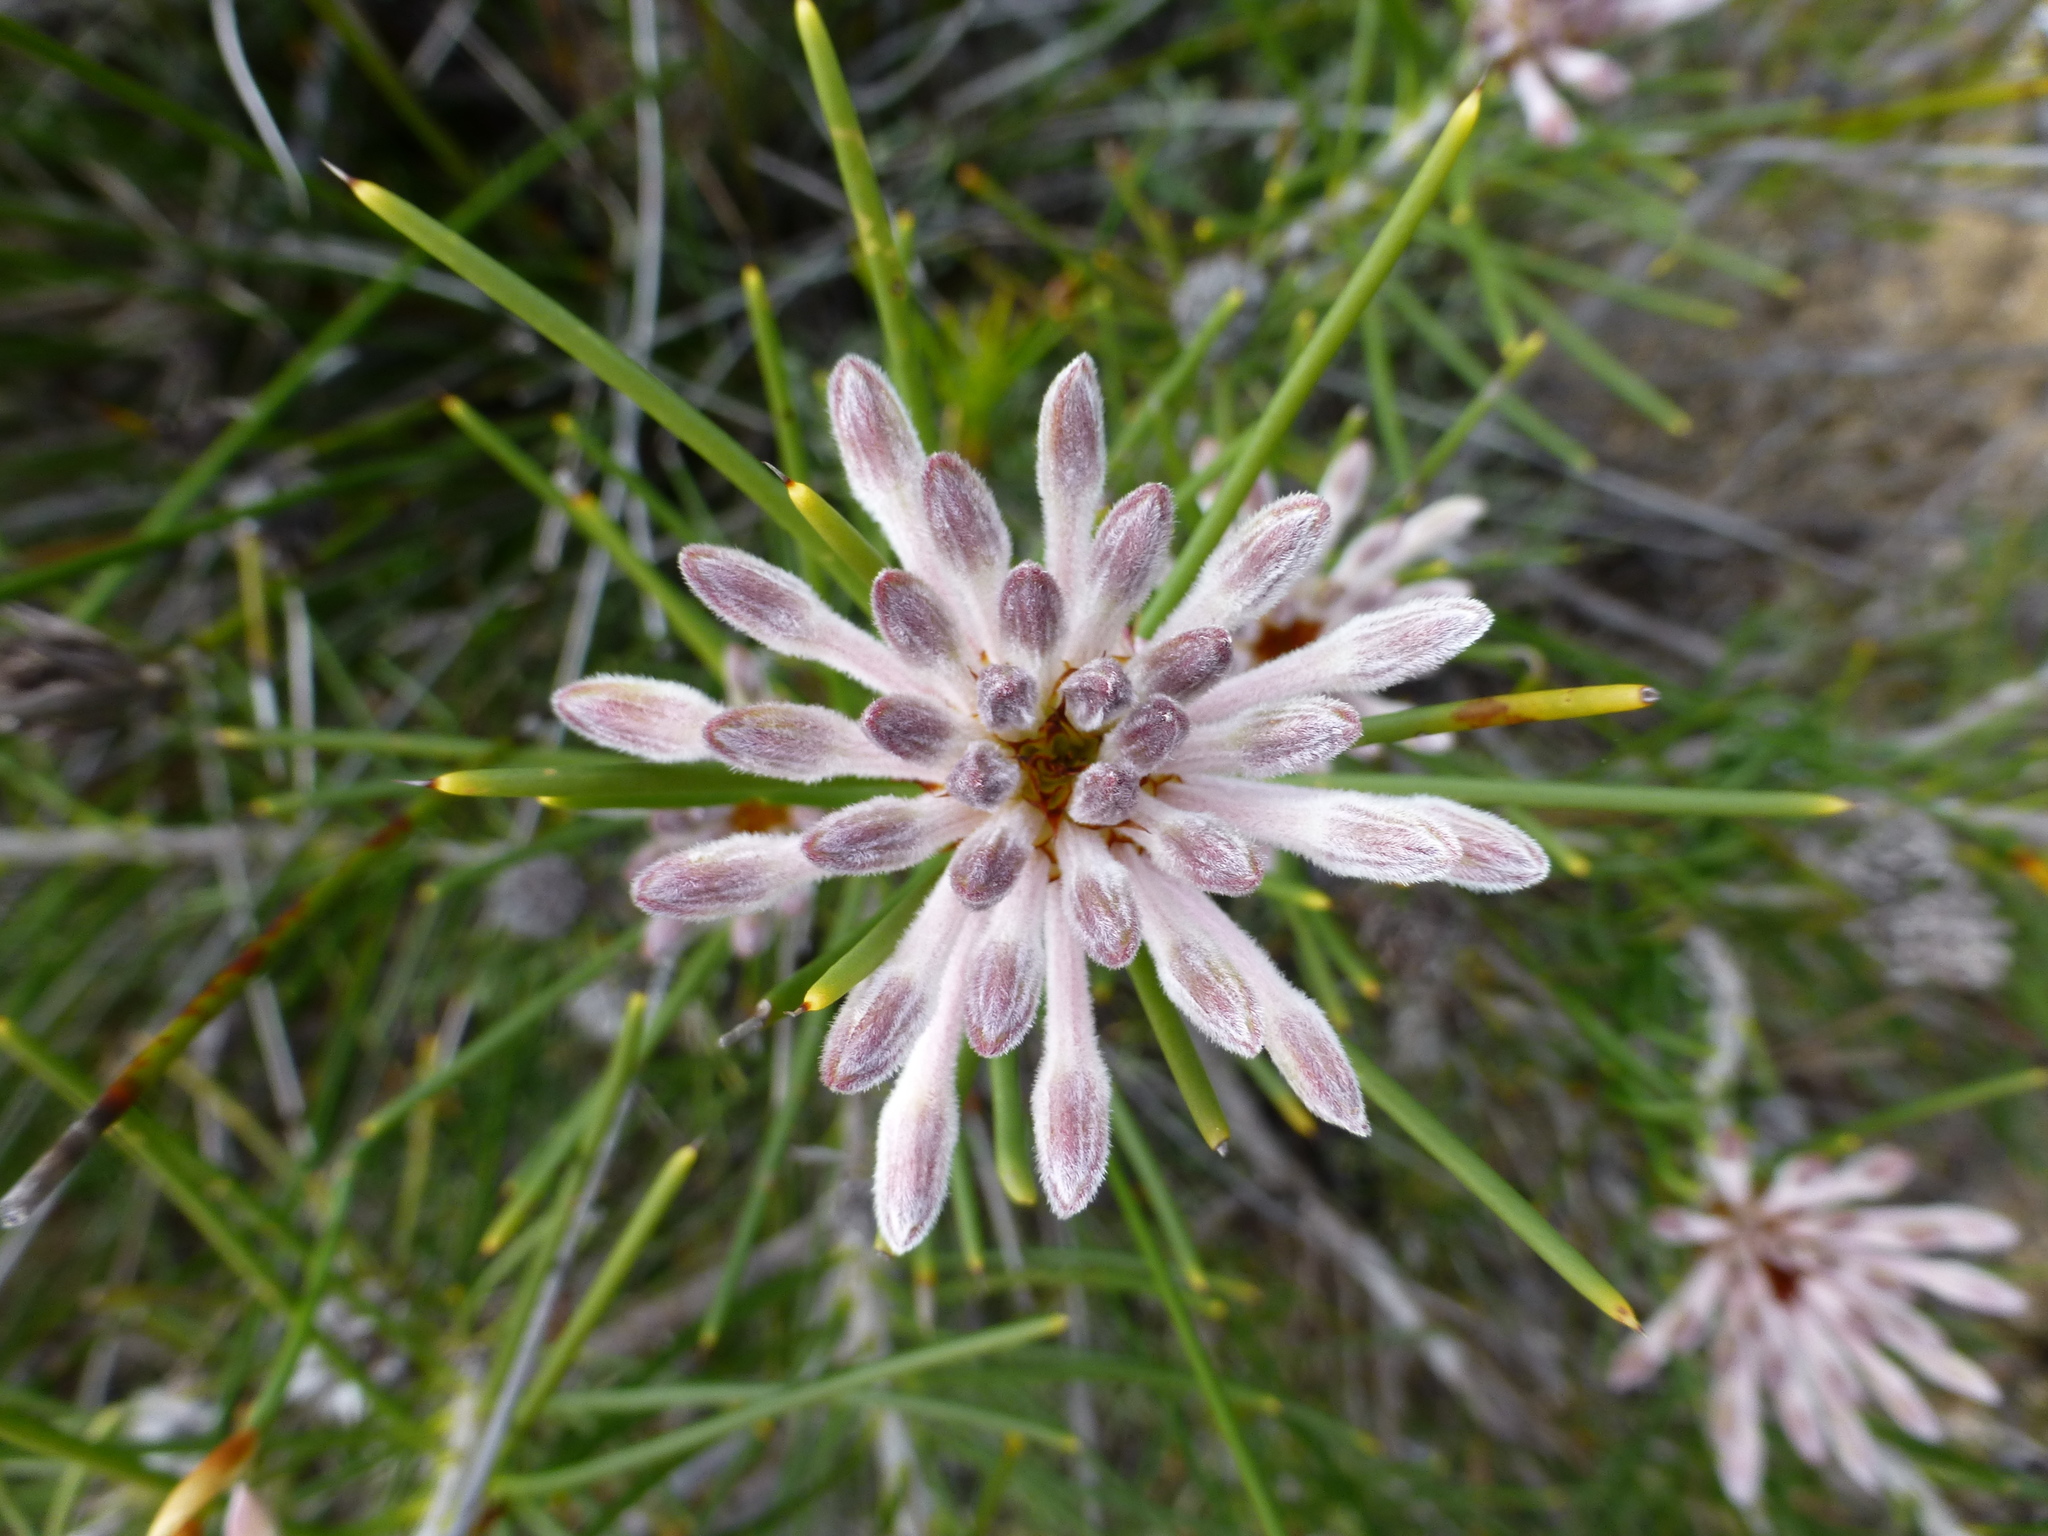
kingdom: Plantae
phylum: Tracheophyta
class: Magnoliopsida
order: Proteales
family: Proteaceae
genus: Petrophile
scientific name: Petrophile brevifolia
